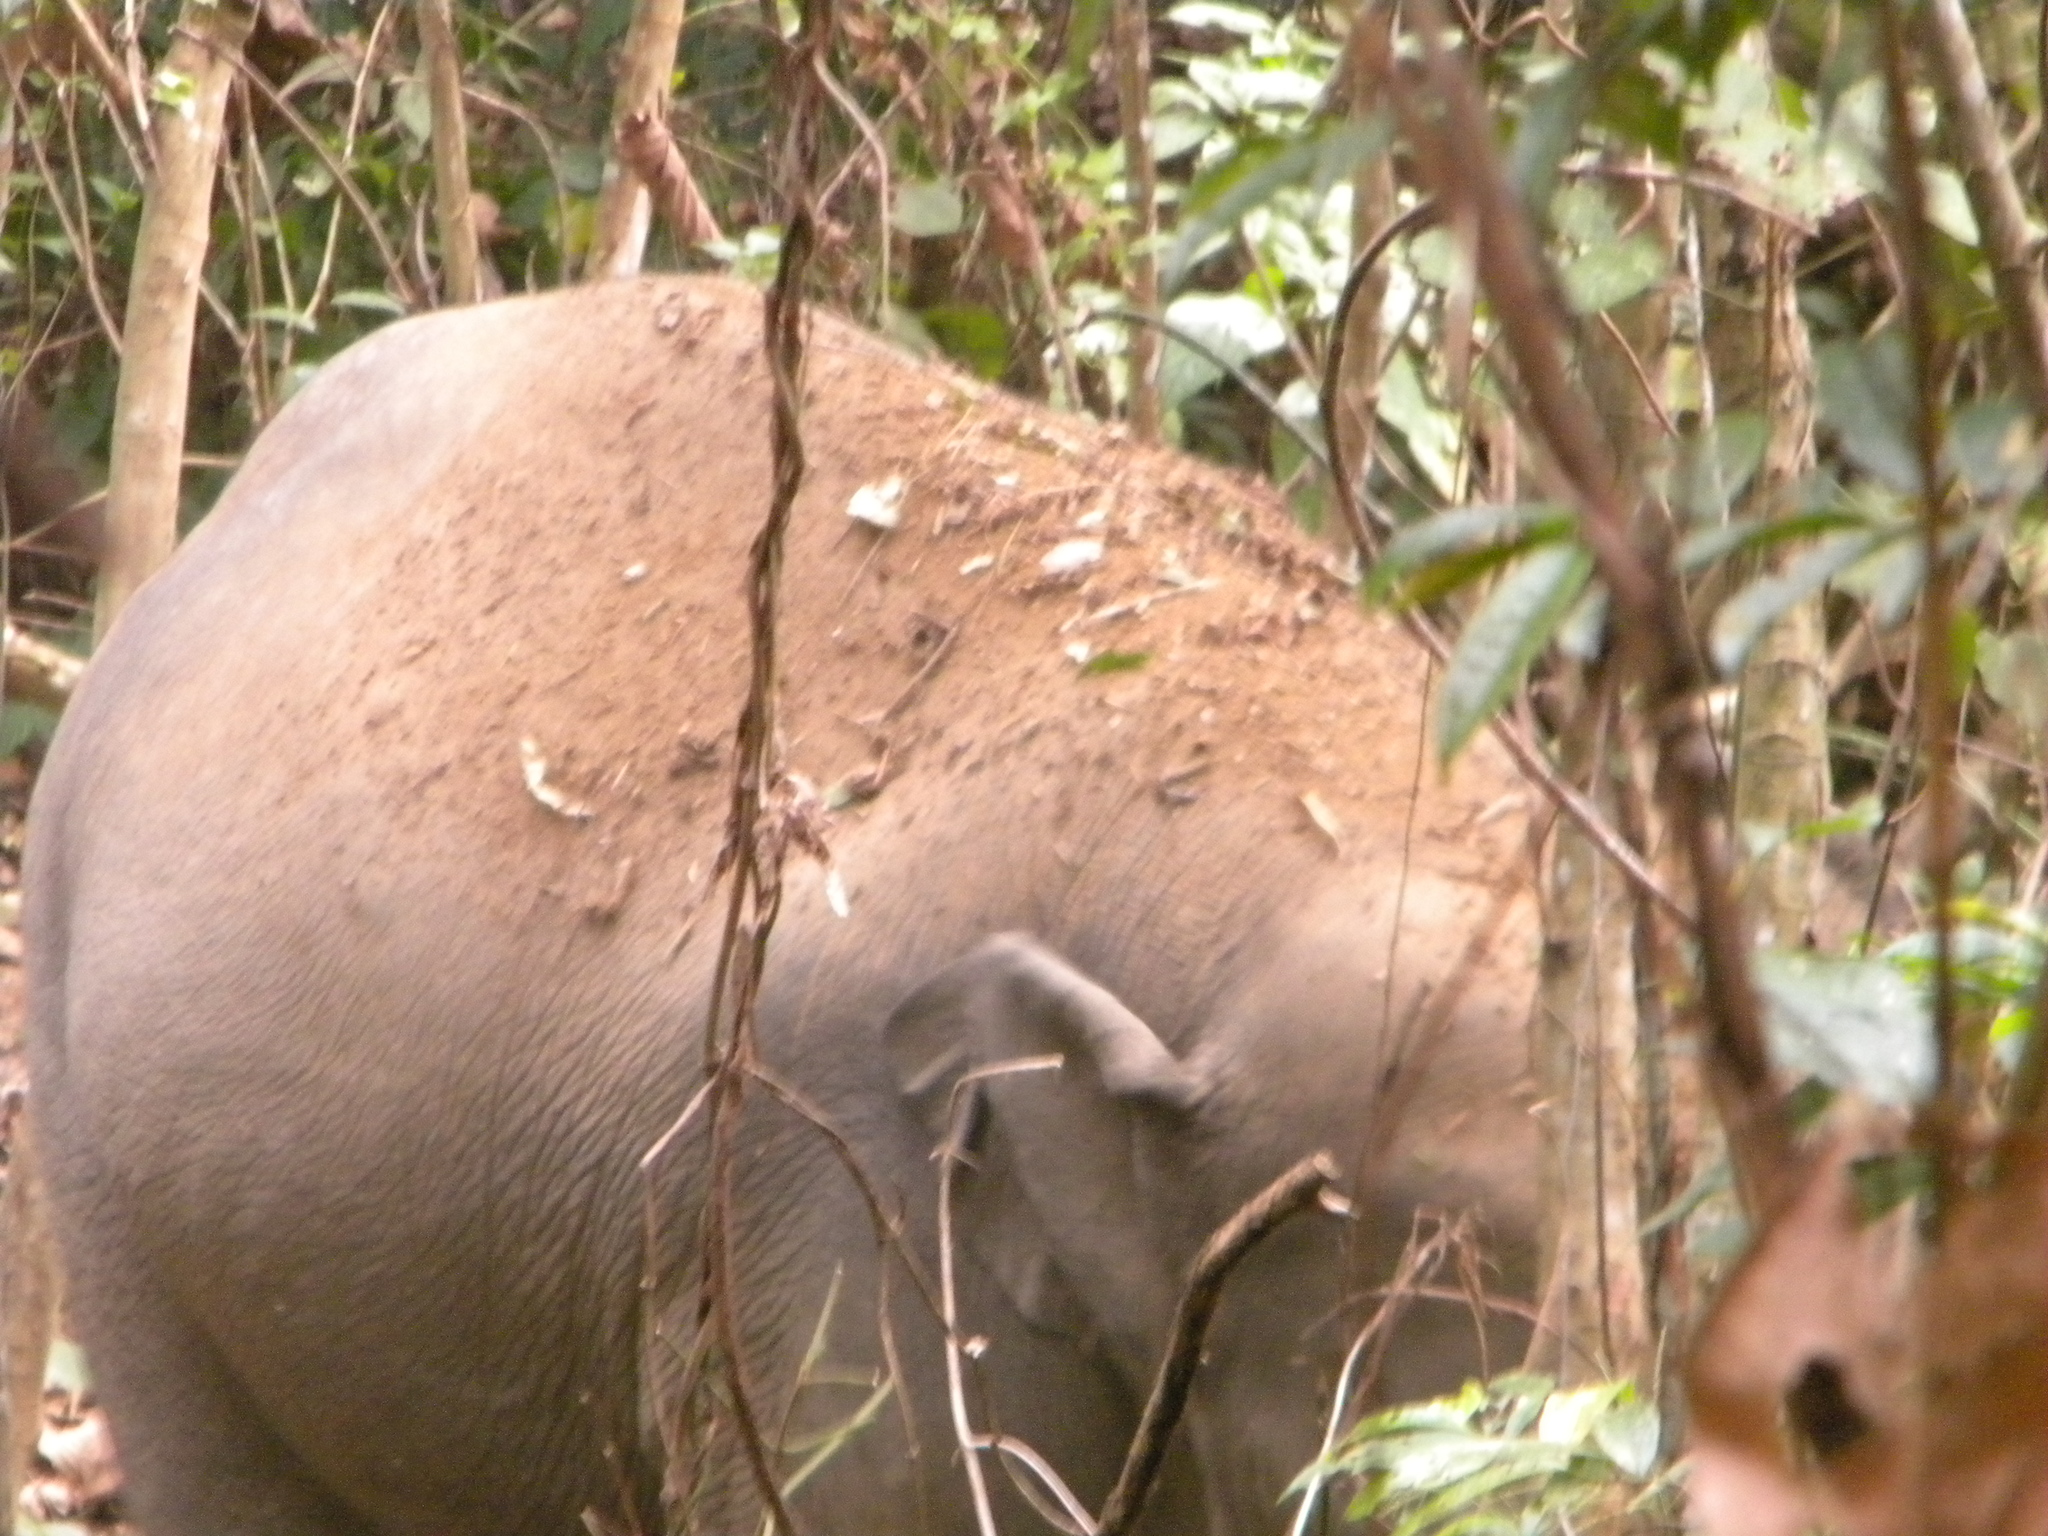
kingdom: Animalia
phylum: Chordata
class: Mammalia
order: Proboscidea
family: Elephantidae
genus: Elephas
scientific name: Elephas maximus
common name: Asian elephant
